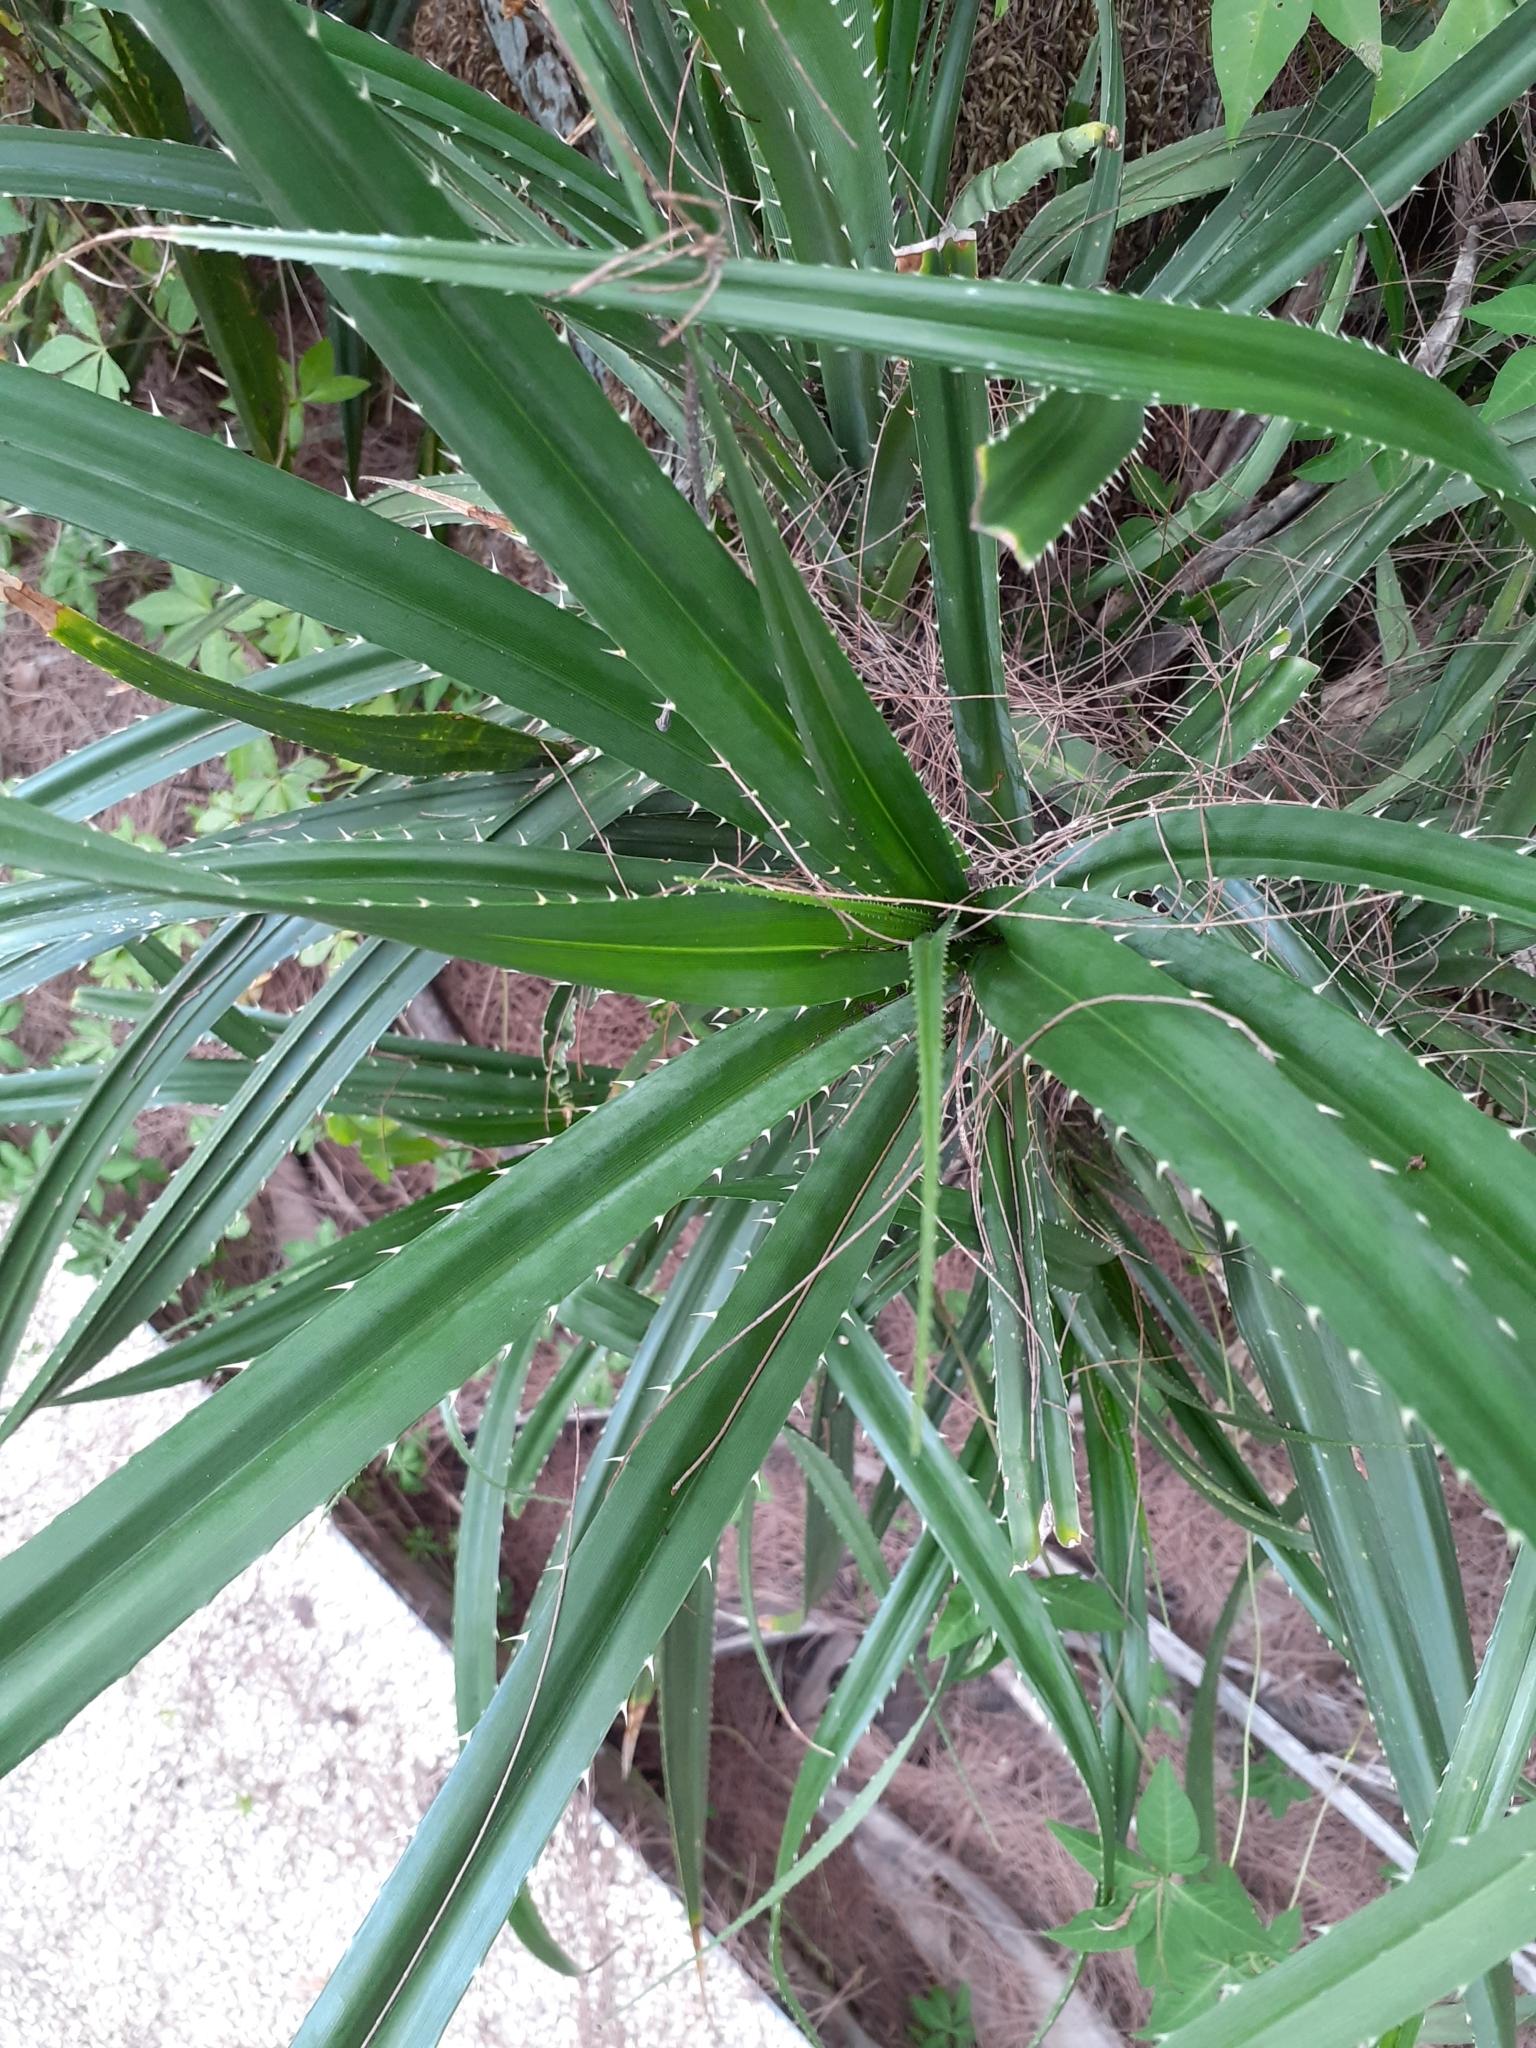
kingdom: Plantae
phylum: Tracheophyta
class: Liliopsida
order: Pandanales
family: Pandanaceae
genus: Pandanus
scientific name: Pandanus odorifer
